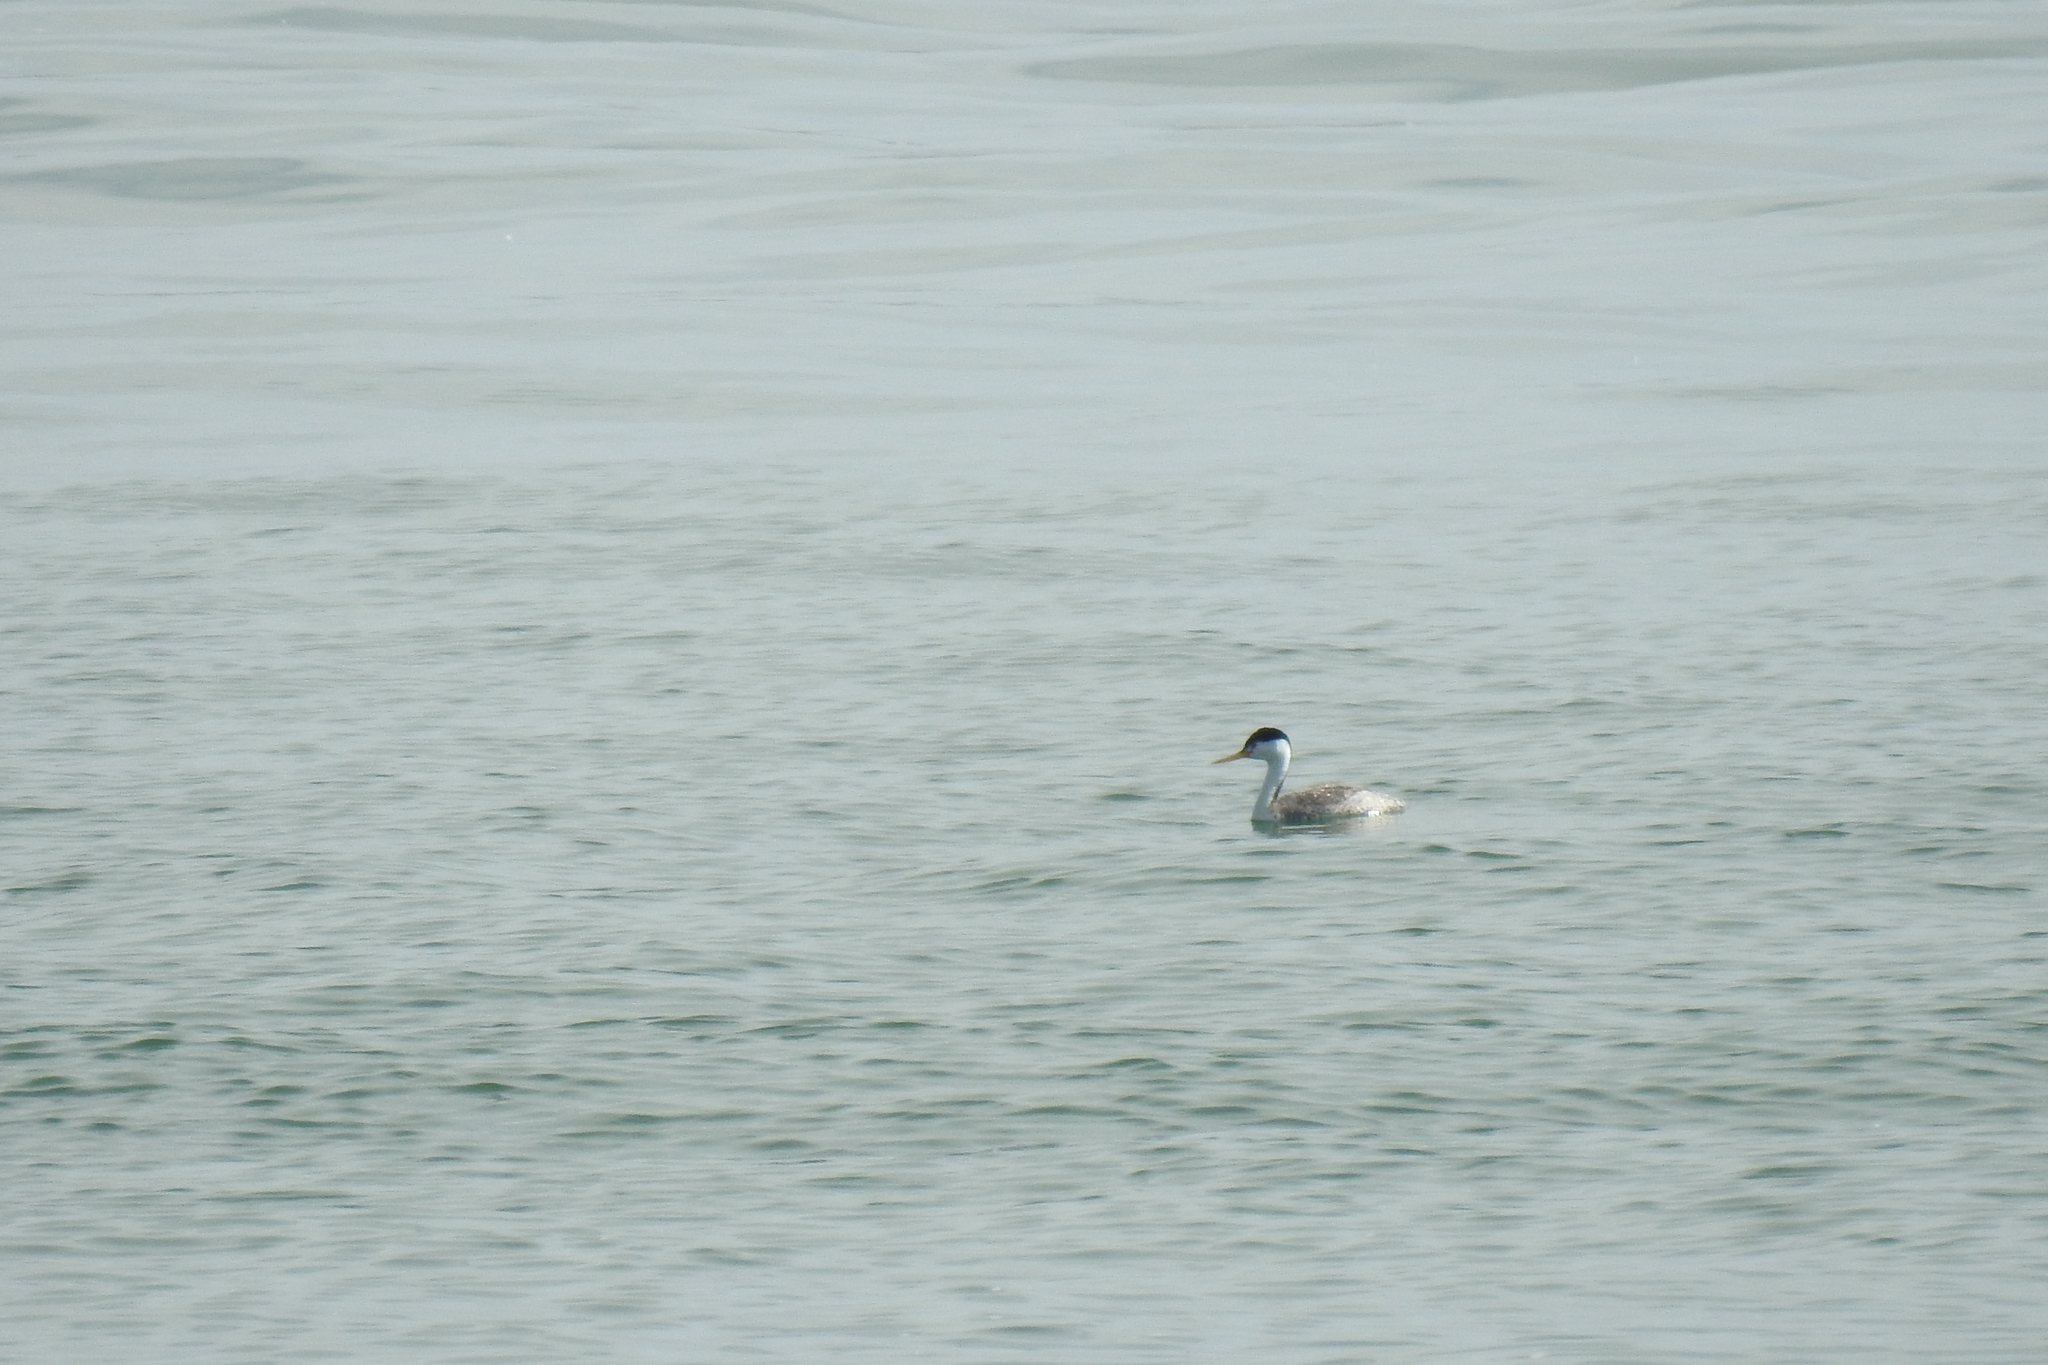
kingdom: Animalia
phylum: Chordata
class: Aves
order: Podicipediformes
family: Podicipedidae
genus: Aechmophorus
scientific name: Aechmophorus clarkii
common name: Clark's grebe
